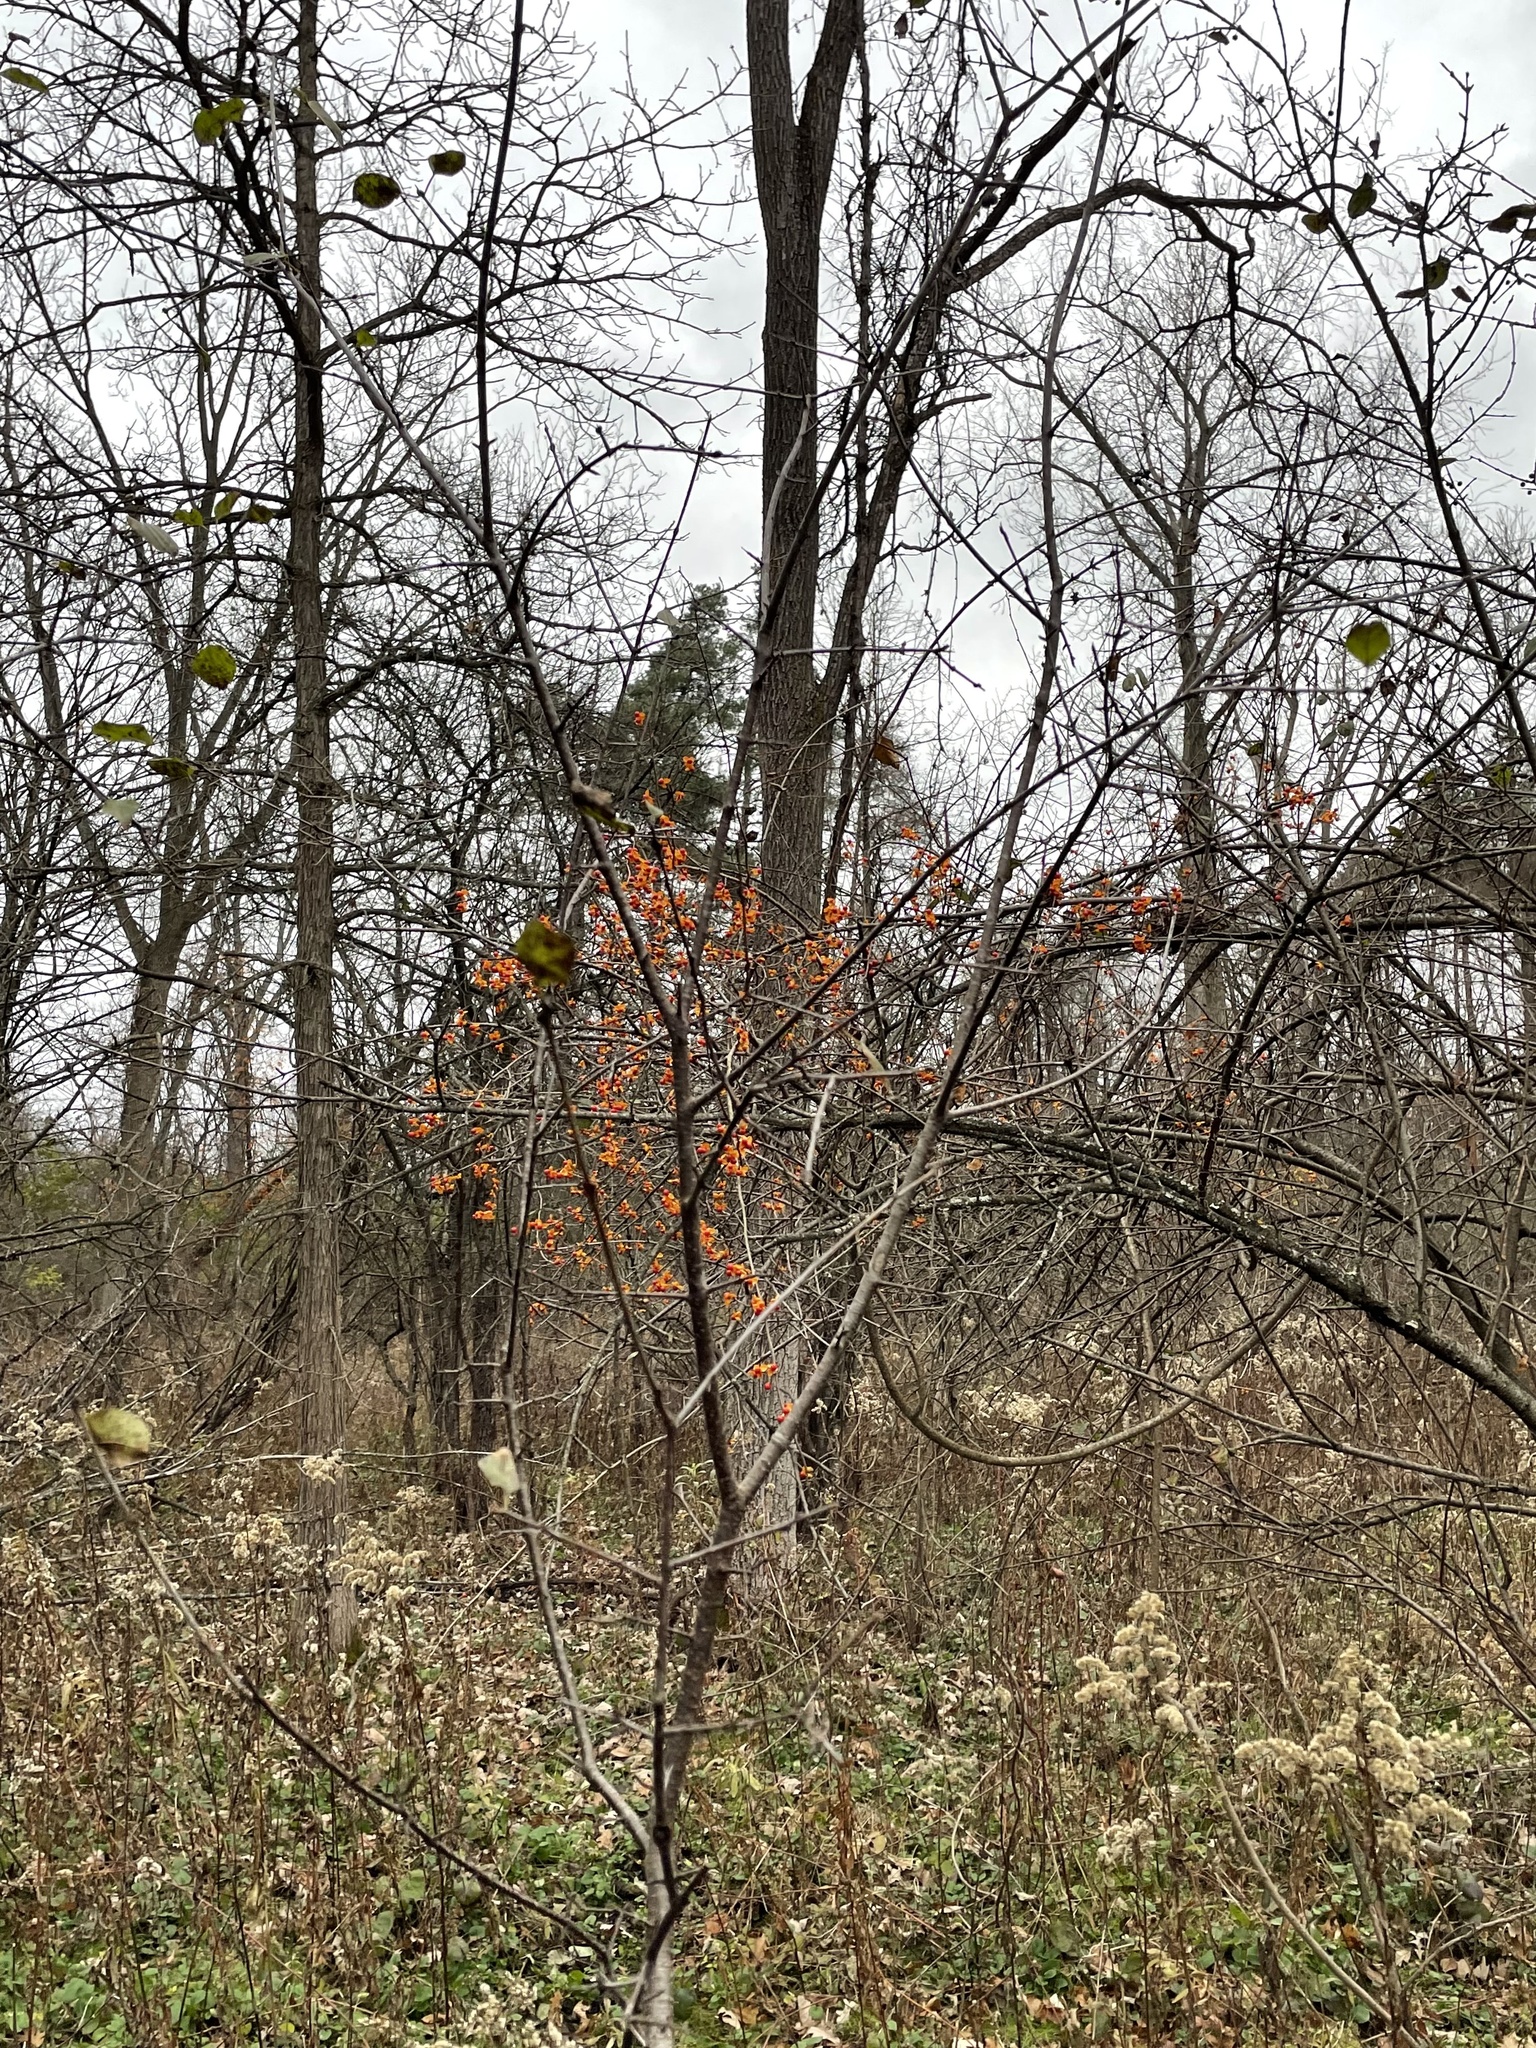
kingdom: Plantae
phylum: Tracheophyta
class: Magnoliopsida
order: Celastrales
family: Celastraceae
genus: Celastrus
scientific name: Celastrus orbiculatus
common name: Oriental bittersweet
